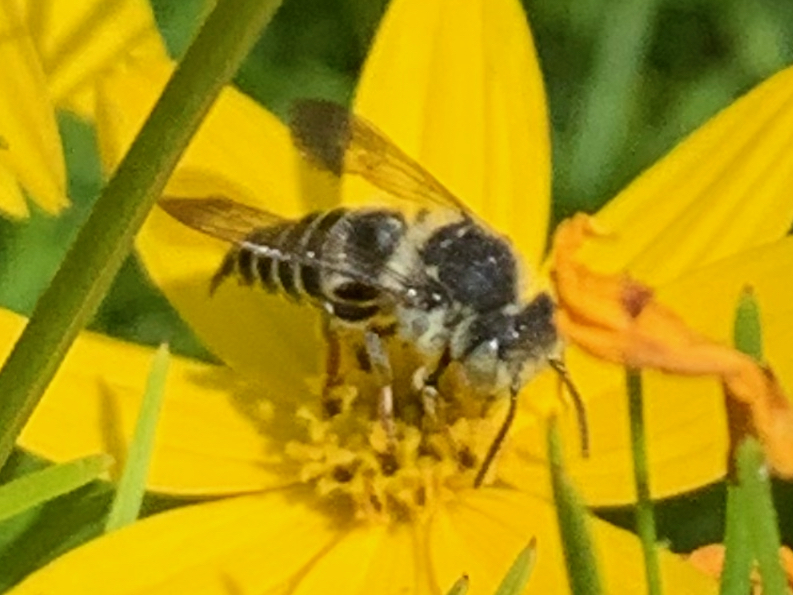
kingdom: Animalia
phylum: Arthropoda
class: Insecta
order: Hymenoptera
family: Megachilidae
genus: Coelioxys
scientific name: Coelioxys rufitarsis
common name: Red-footed sharptail
